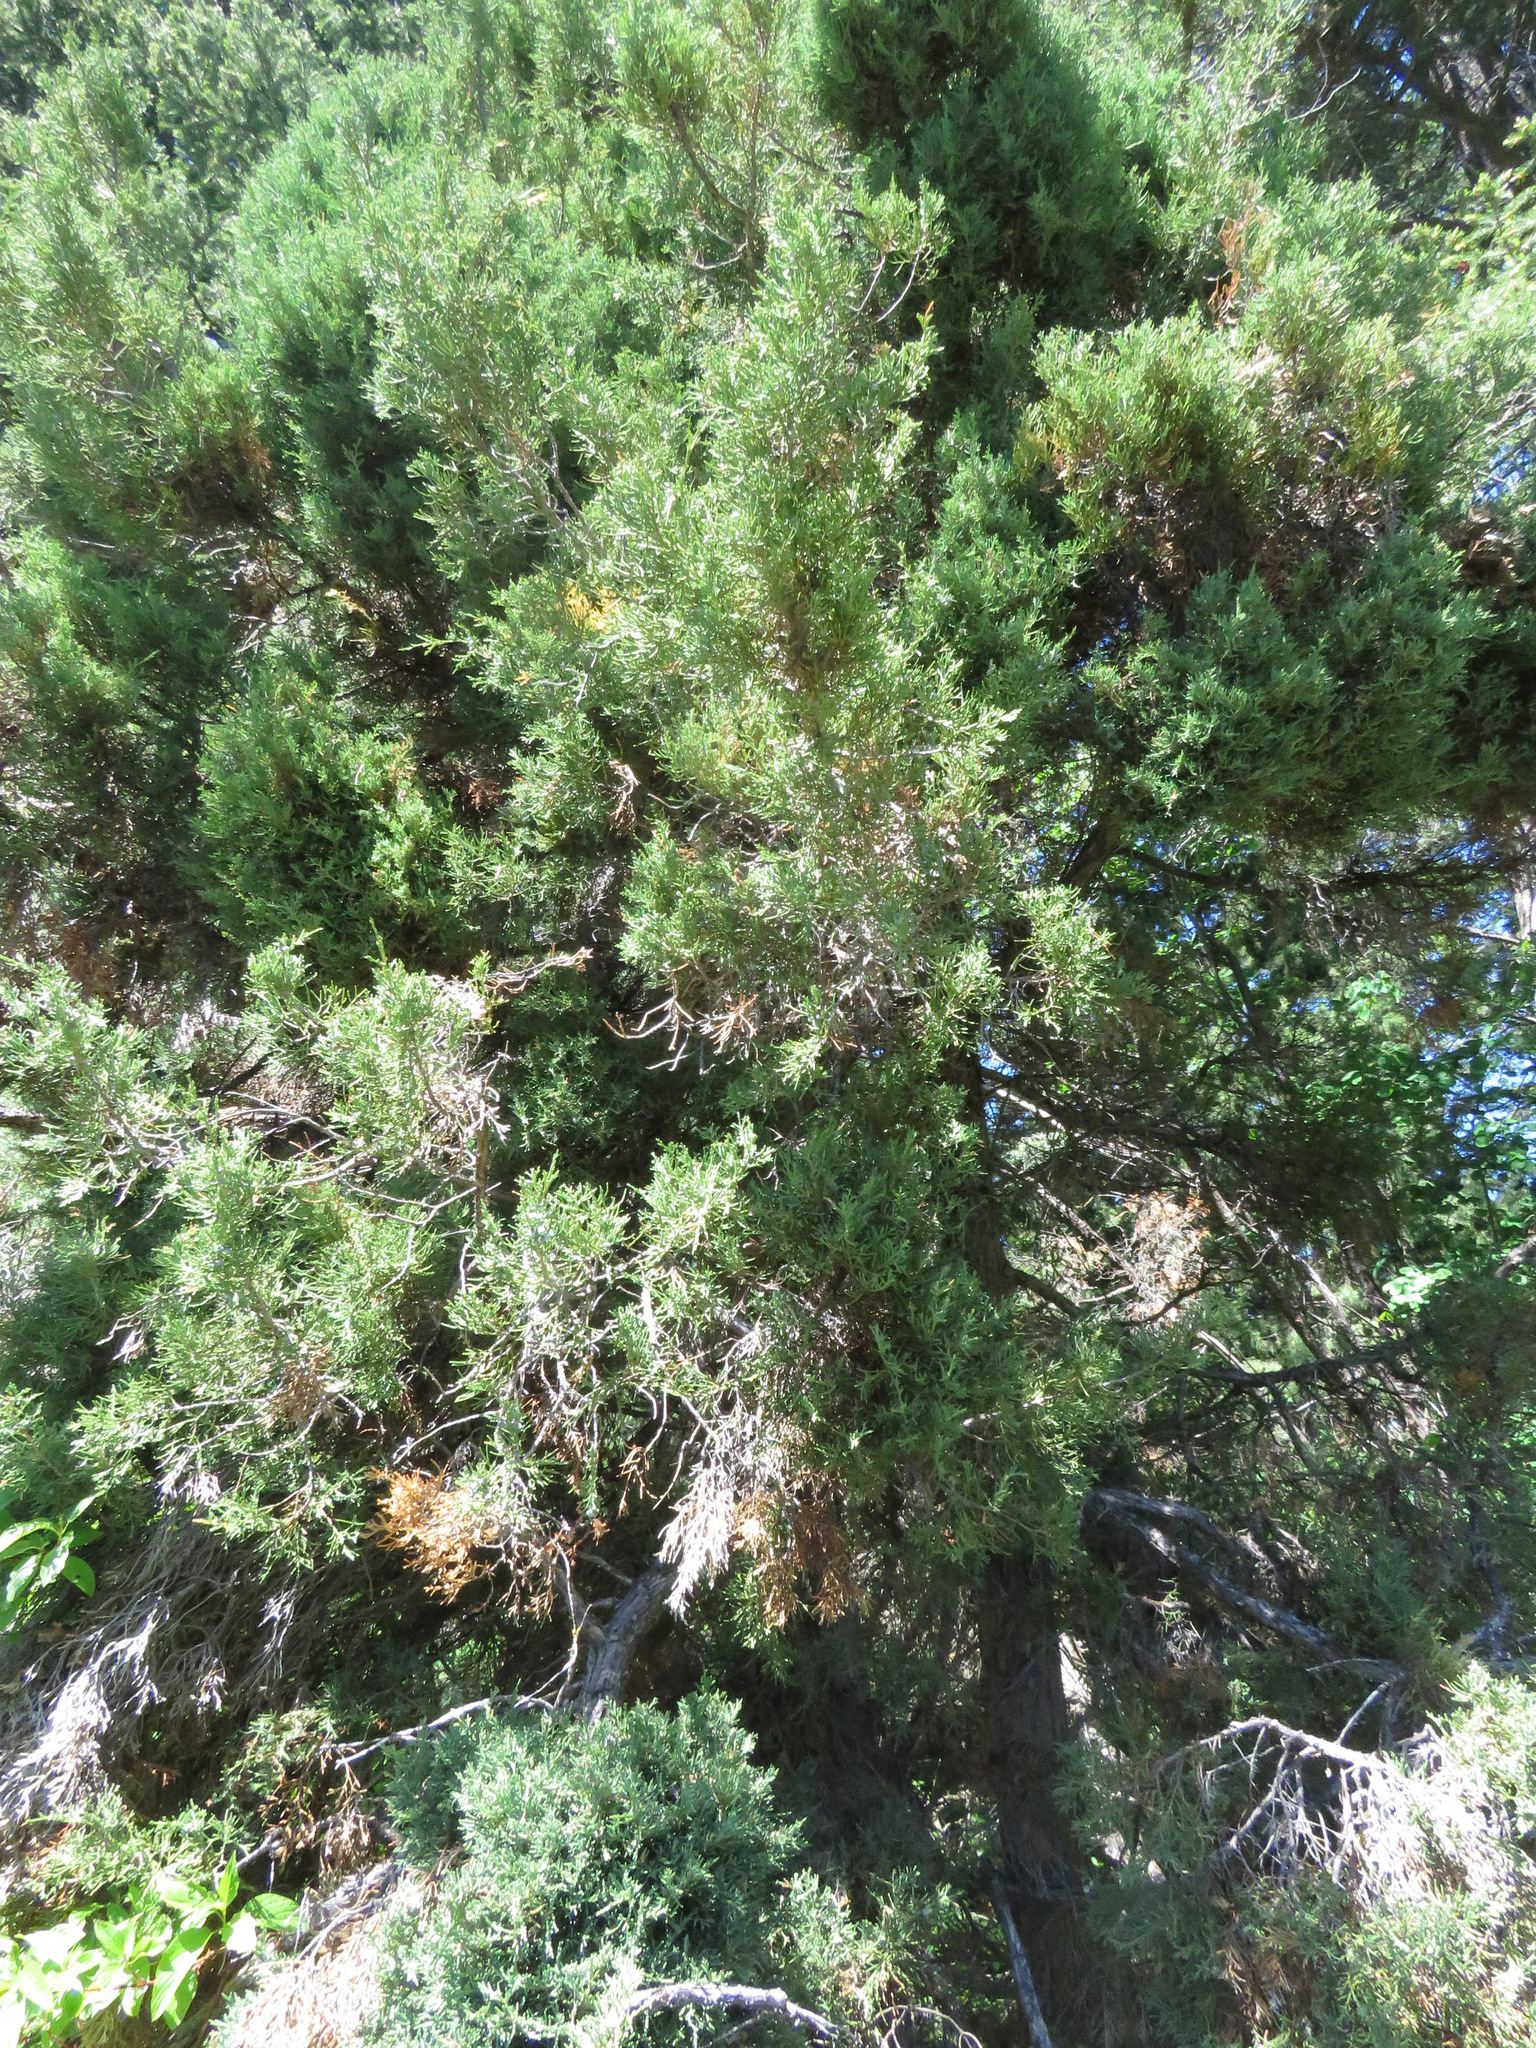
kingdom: Plantae
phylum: Tracheophyta
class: Pinopsida
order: Pinales
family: Cupressaceae
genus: Juniperus
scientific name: Juniperus scopulorum
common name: Rocky mountain juniper
